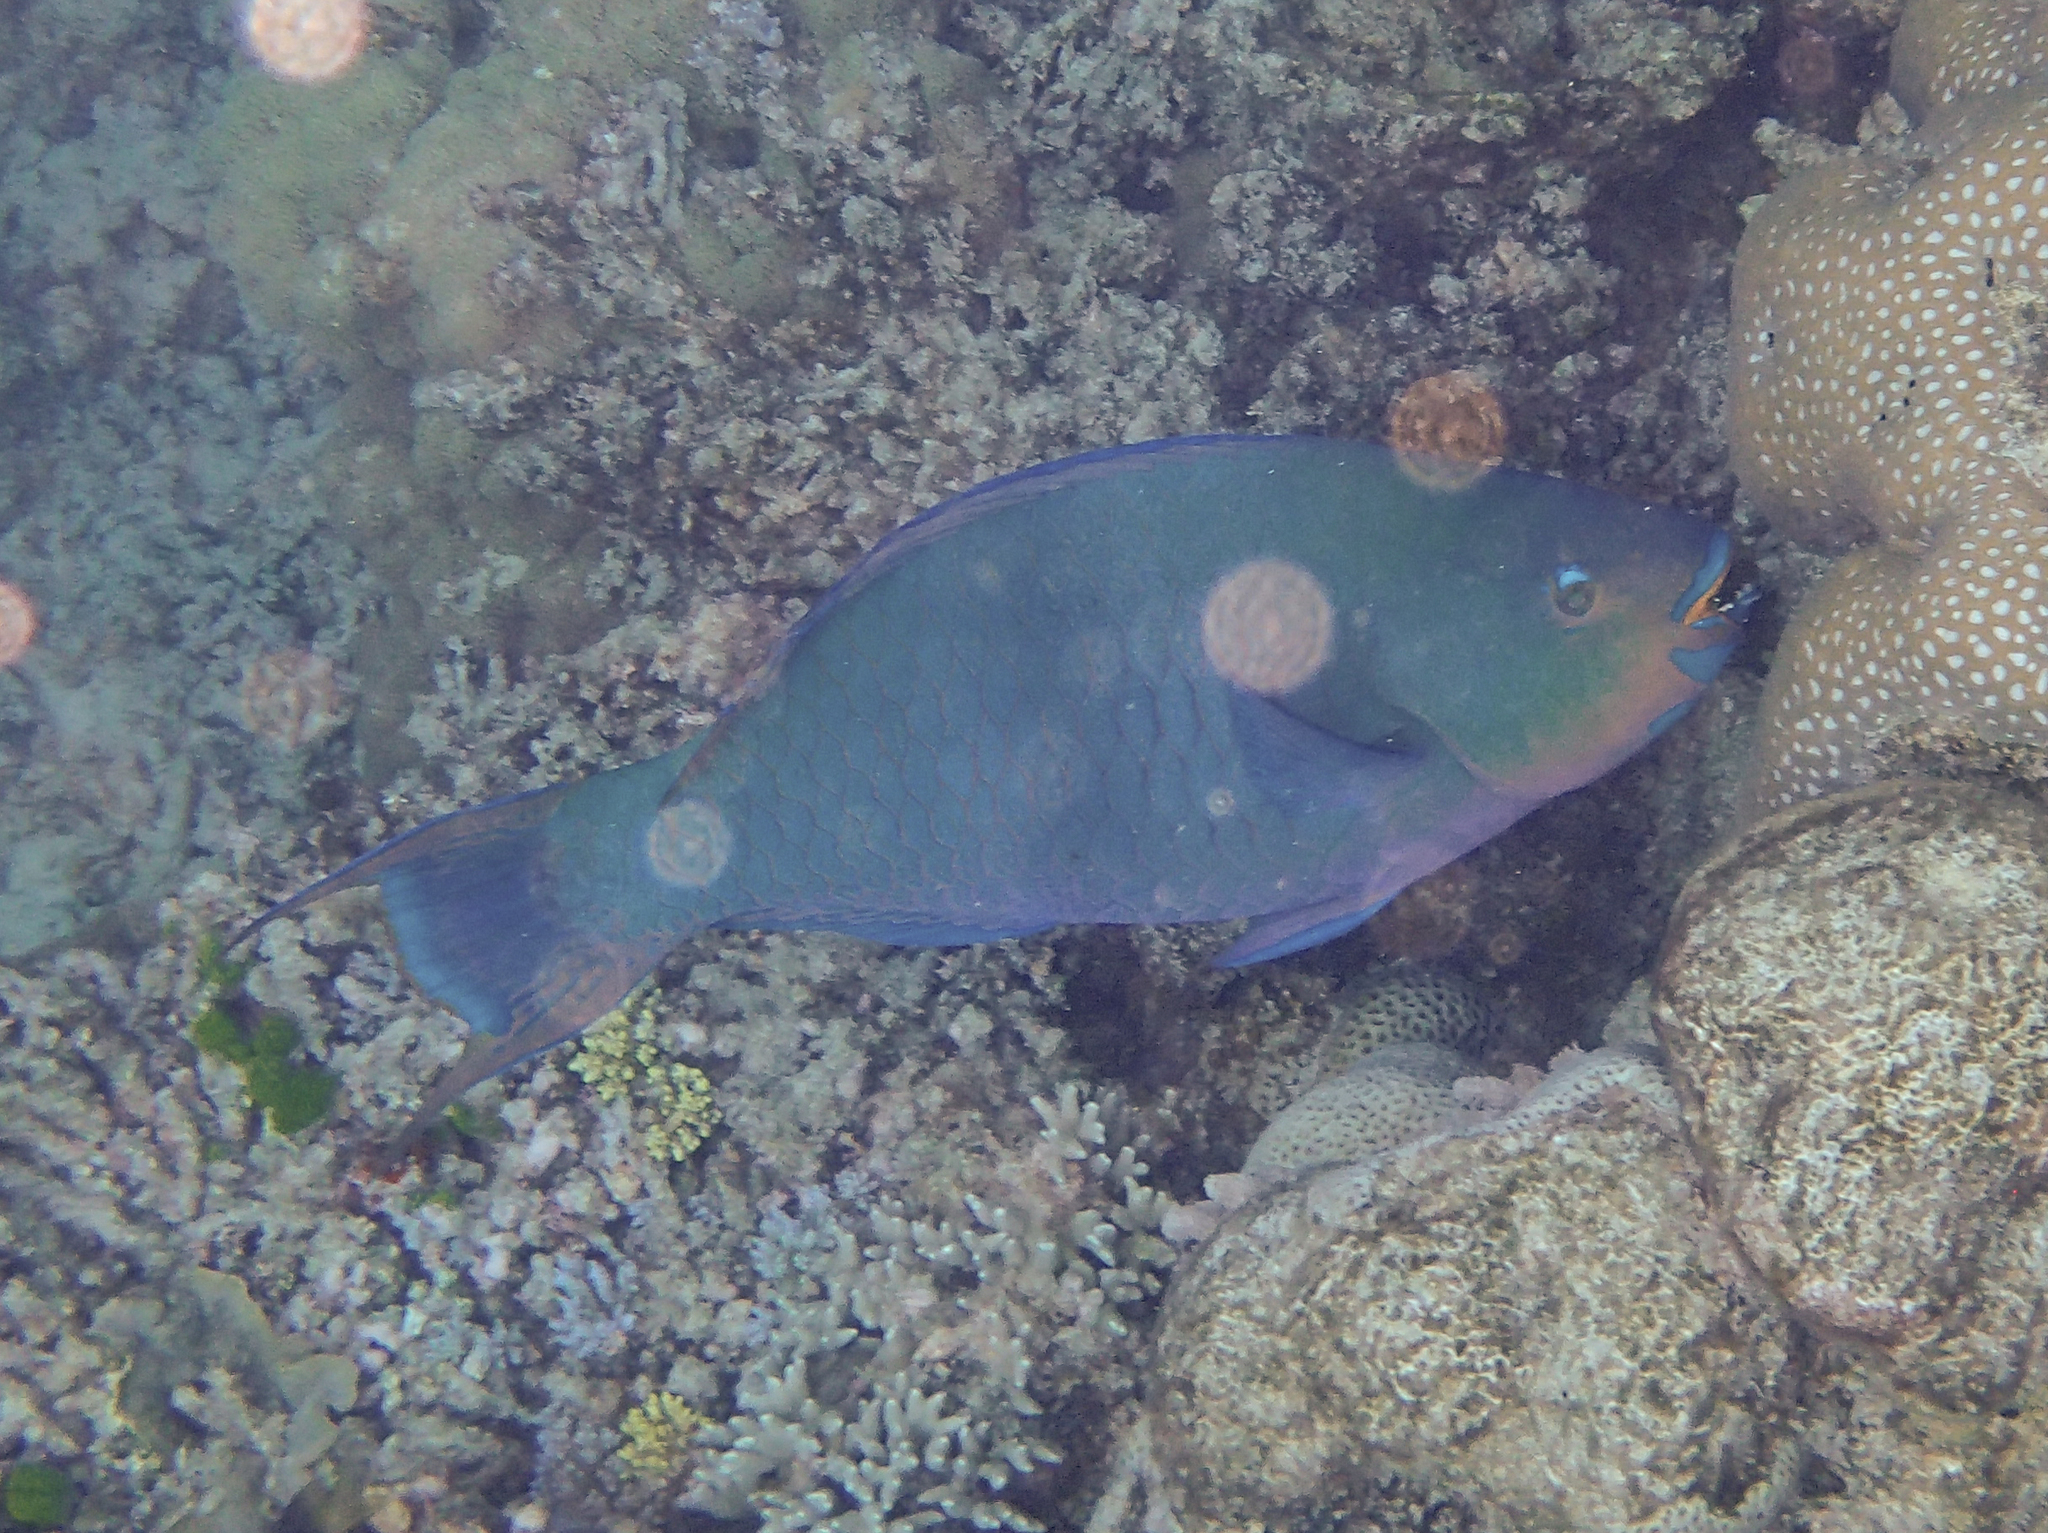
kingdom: Animalia
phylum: Chordata
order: Perciformes
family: Scaridae
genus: Scarus
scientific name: Scarus altipinnis
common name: Minifin parrotfish
